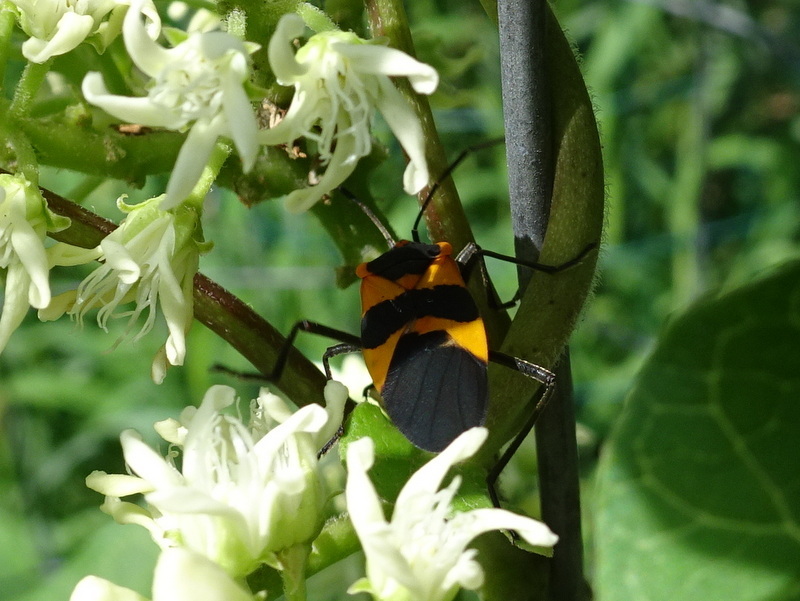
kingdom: Animalia
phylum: Arthropoda
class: Insecta
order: Hemiptera
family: Lygaeidae
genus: Oncopeltus
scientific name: Oncopeltus fasciatus
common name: Large milkweed bug
